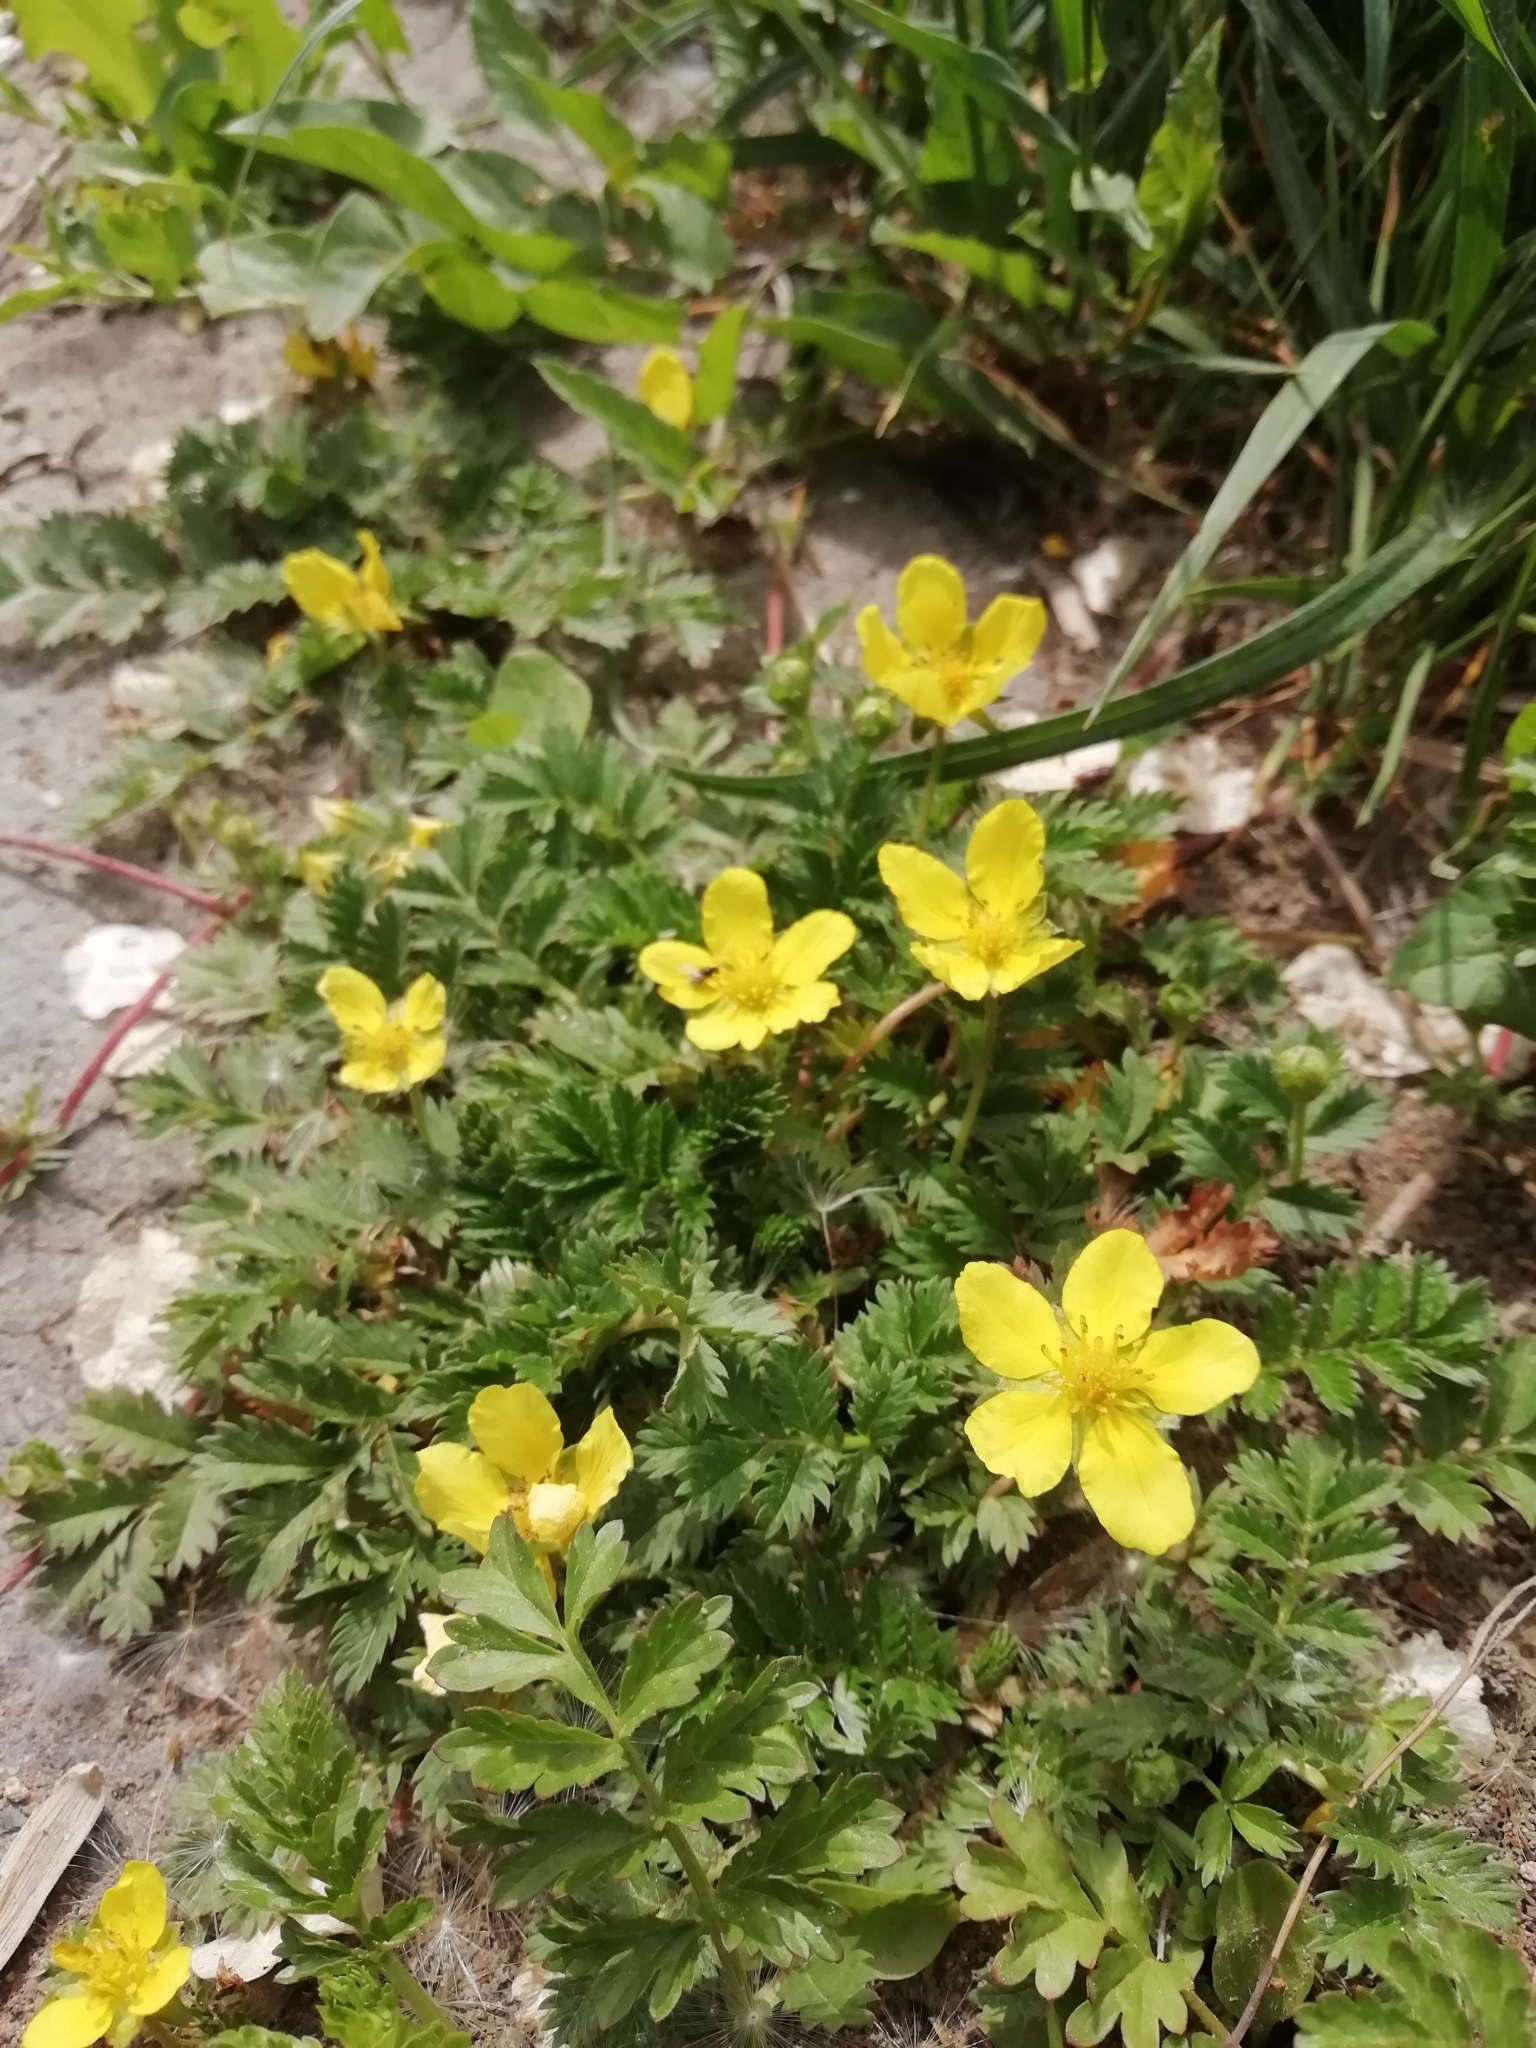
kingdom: Plantae
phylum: Tracheophyta
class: Magnoliopsida
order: Rosales
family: Rosaceae
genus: Argentina
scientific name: Argentina anserina
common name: Common silverweed
